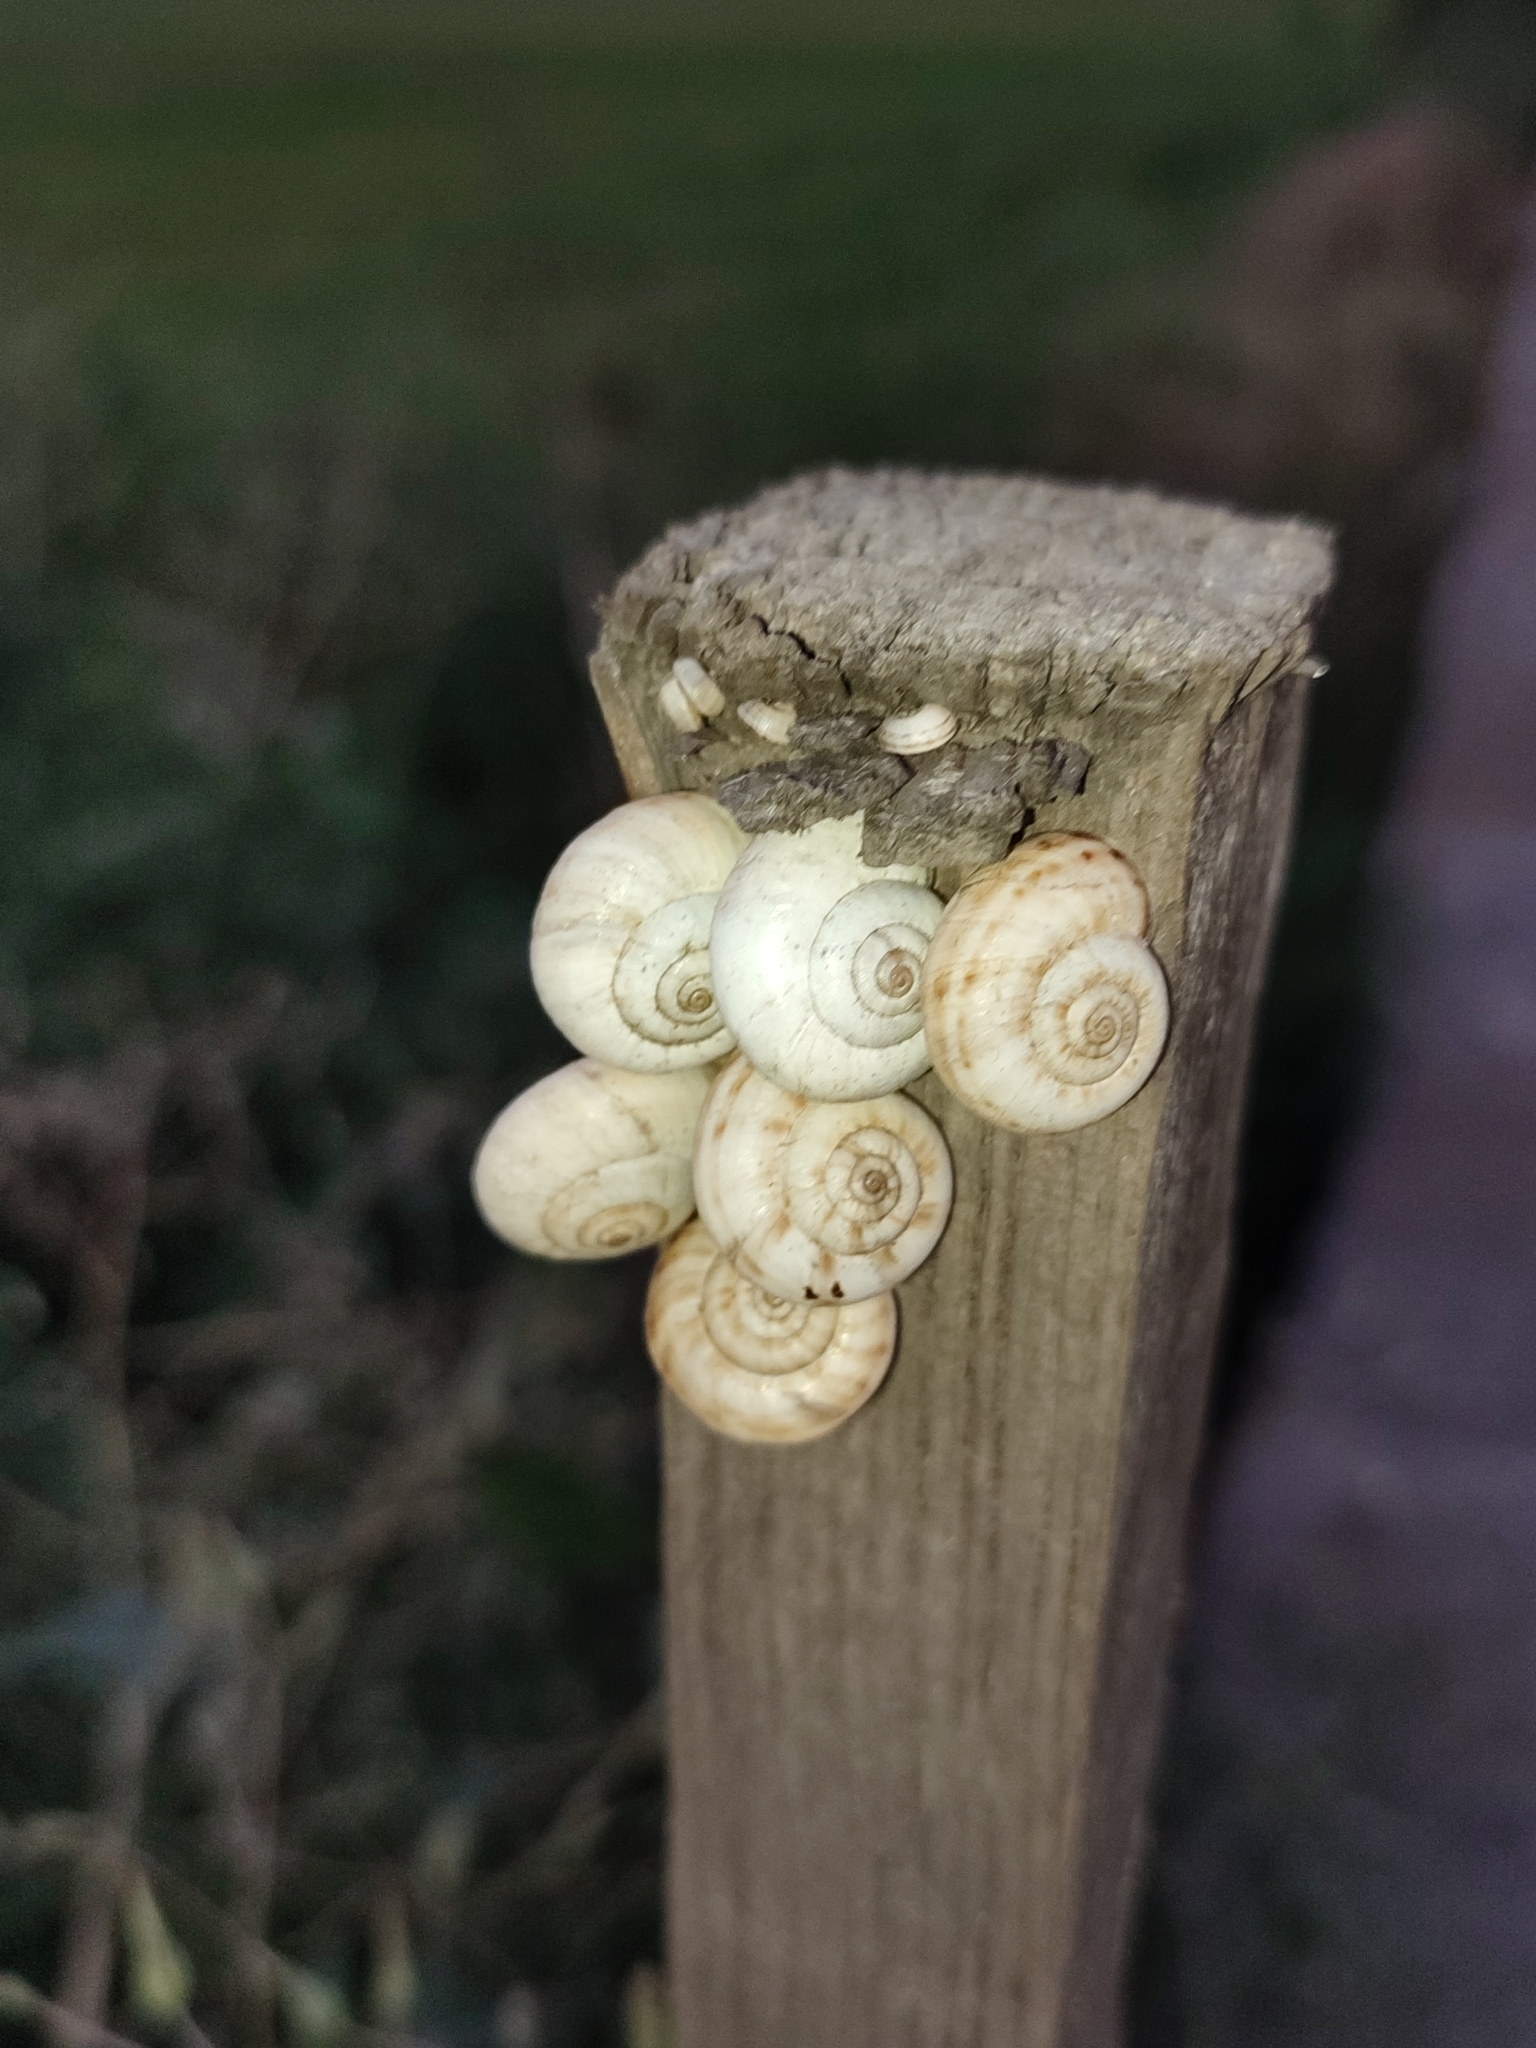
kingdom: Animalia
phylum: Mollusca
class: Gastropoda
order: Stylommatophora
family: Geomitridae
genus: Xeropicta
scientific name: Xeropicta derbentina
